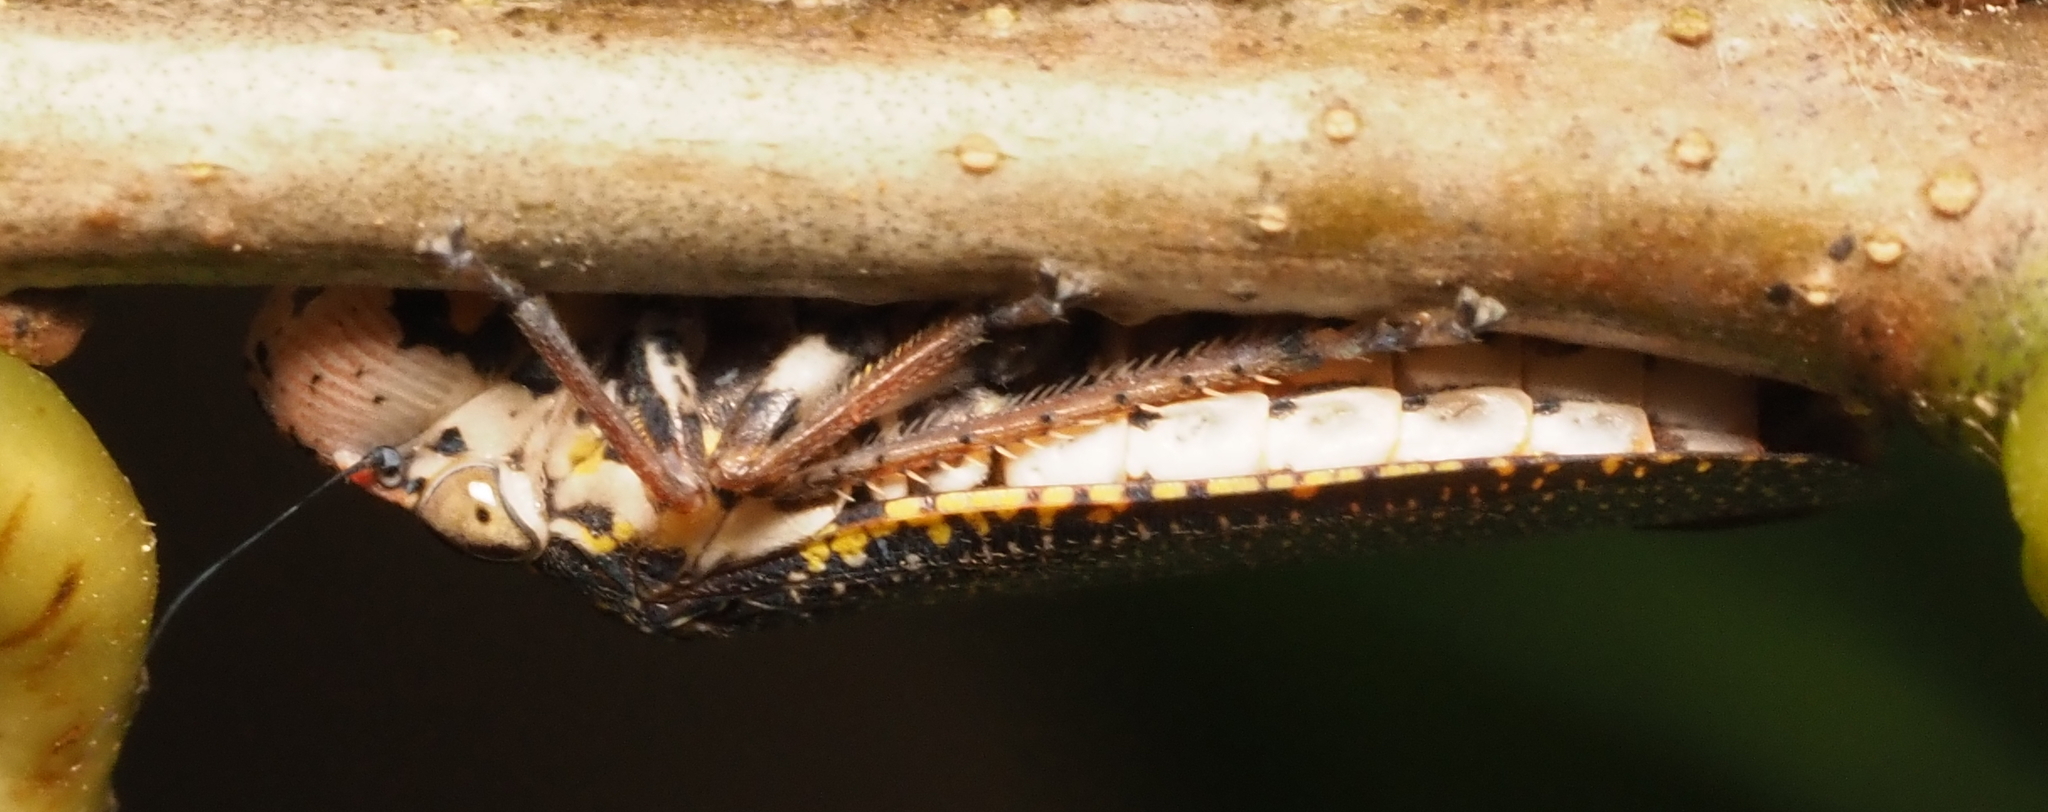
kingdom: Animalia
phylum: Arthropoda
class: Insecta
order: Hemiptera
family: Cicadellidae
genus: Paraulacizes
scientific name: Paraulacizes irrorata
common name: Speckled sharpshooter
